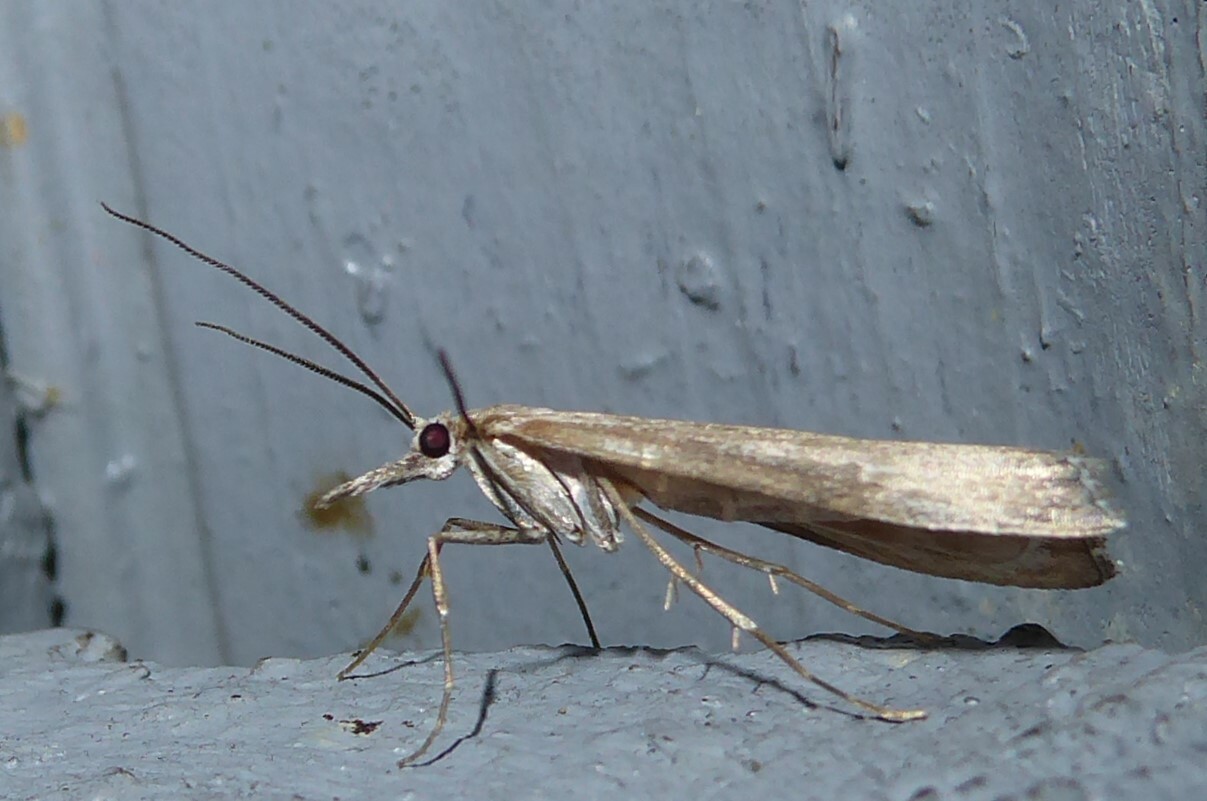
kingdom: Animalia
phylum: Arthropoda
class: Insecta
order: Lepidoptera
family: Crambidae
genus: Orocrambus
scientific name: Orocrambus cyclopicus
